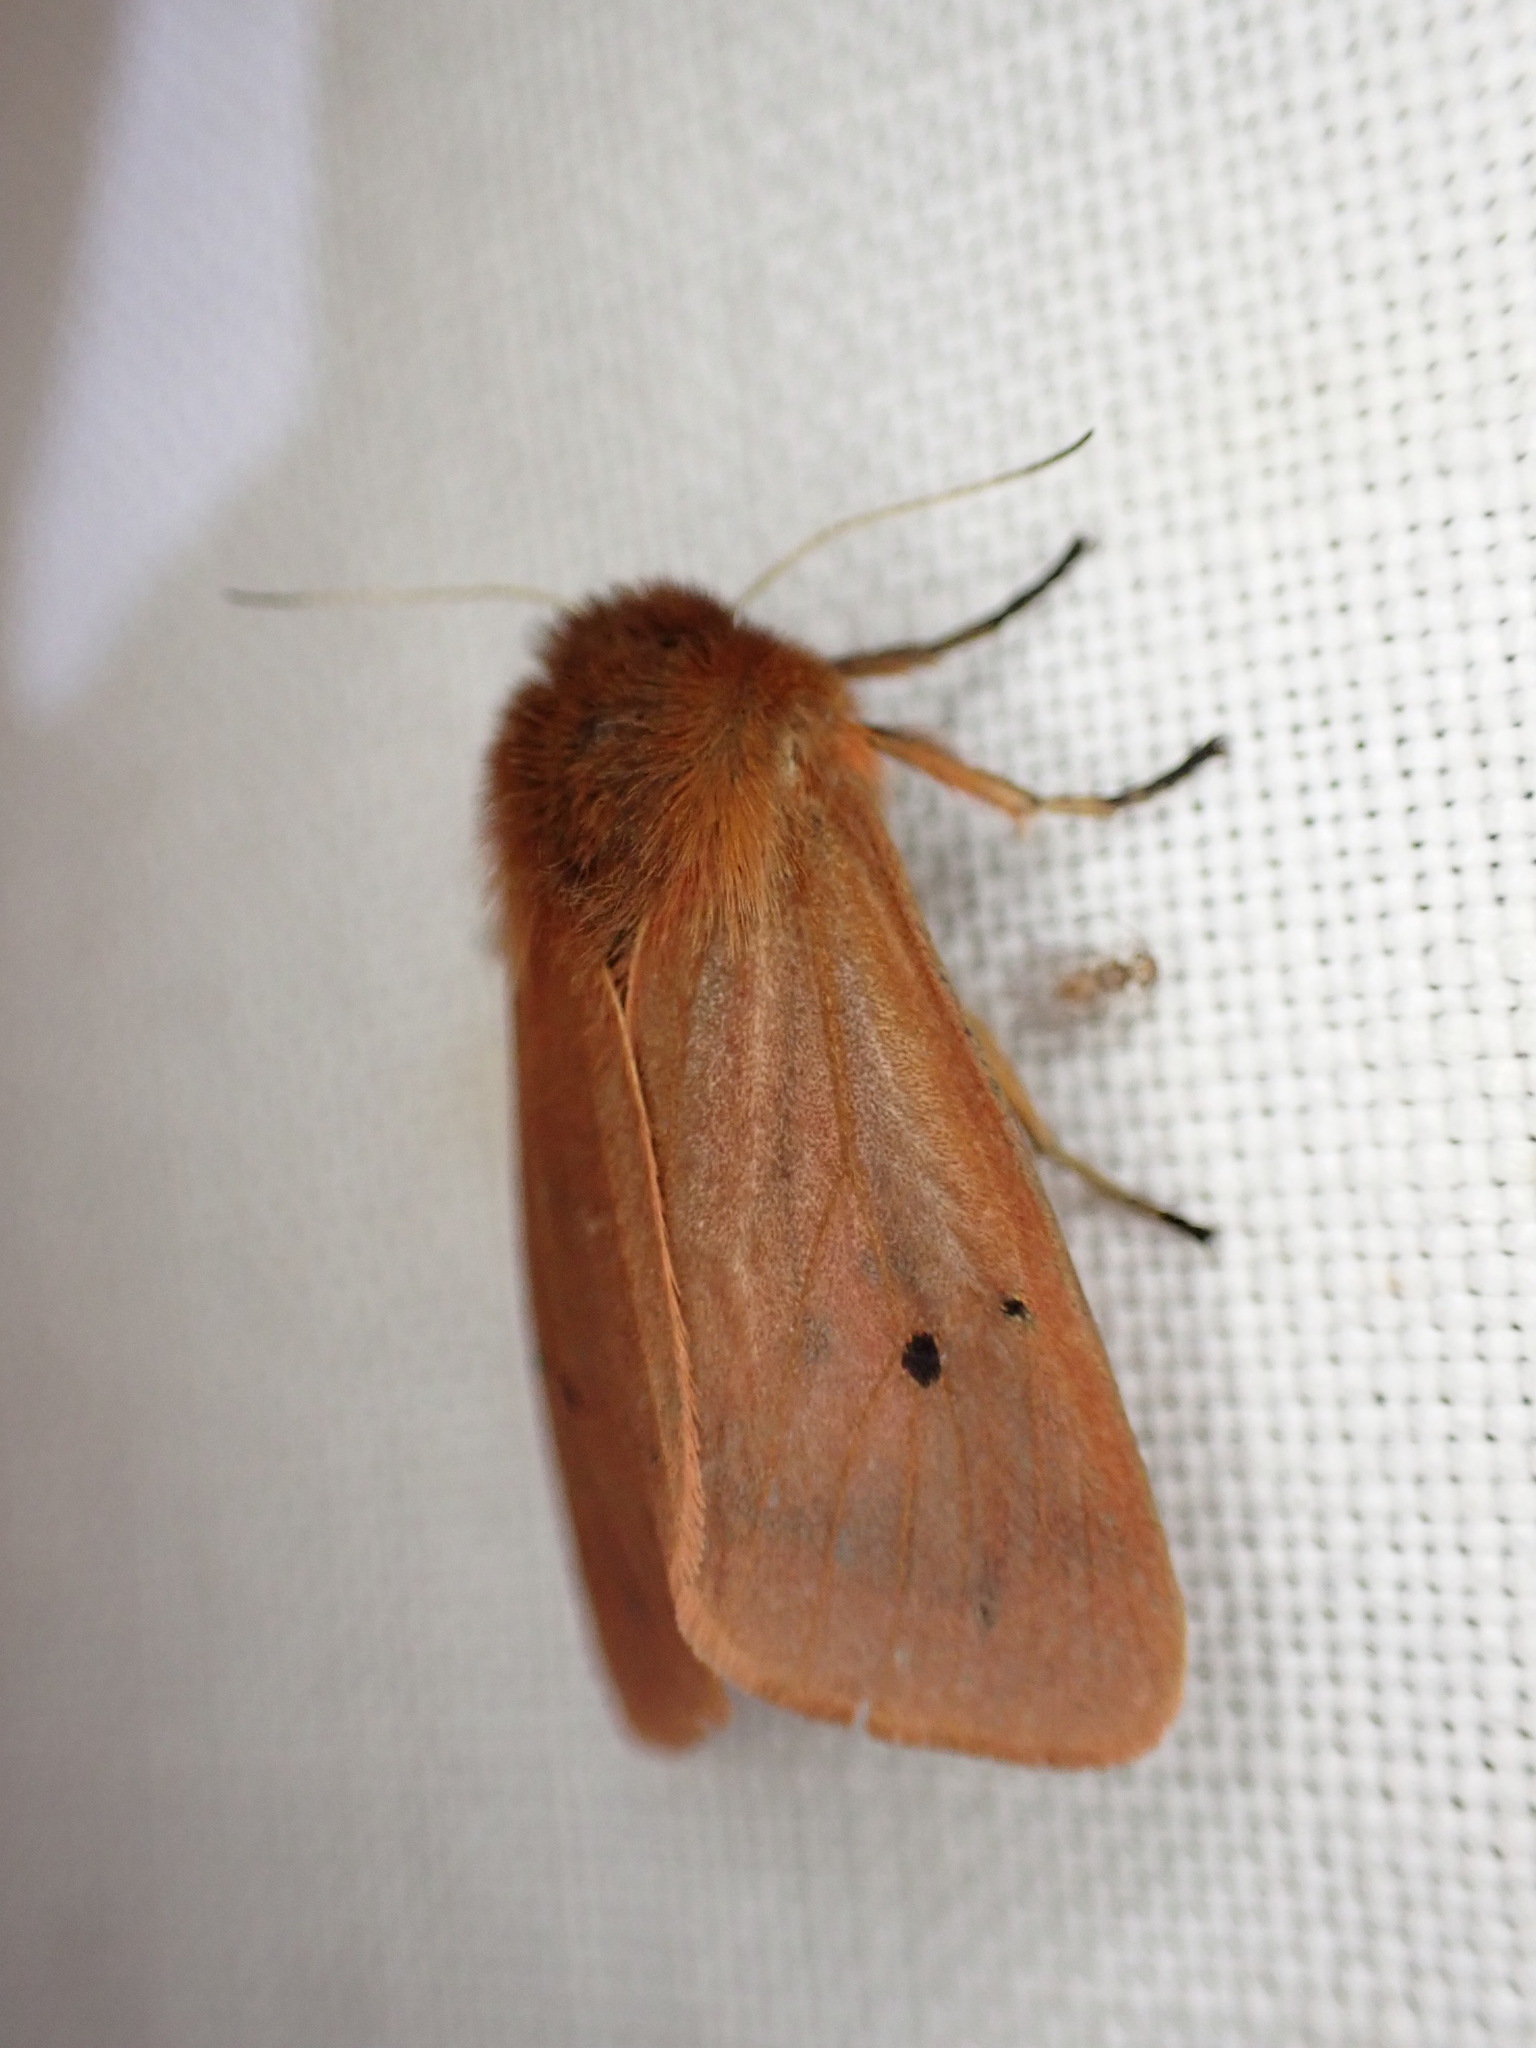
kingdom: Animalia
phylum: Arthropoda
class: Insecta
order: Lepidoptera
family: Erebidae
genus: Phragmatobia
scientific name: Phragmatobia fuliginosa
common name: Ruby tiger
